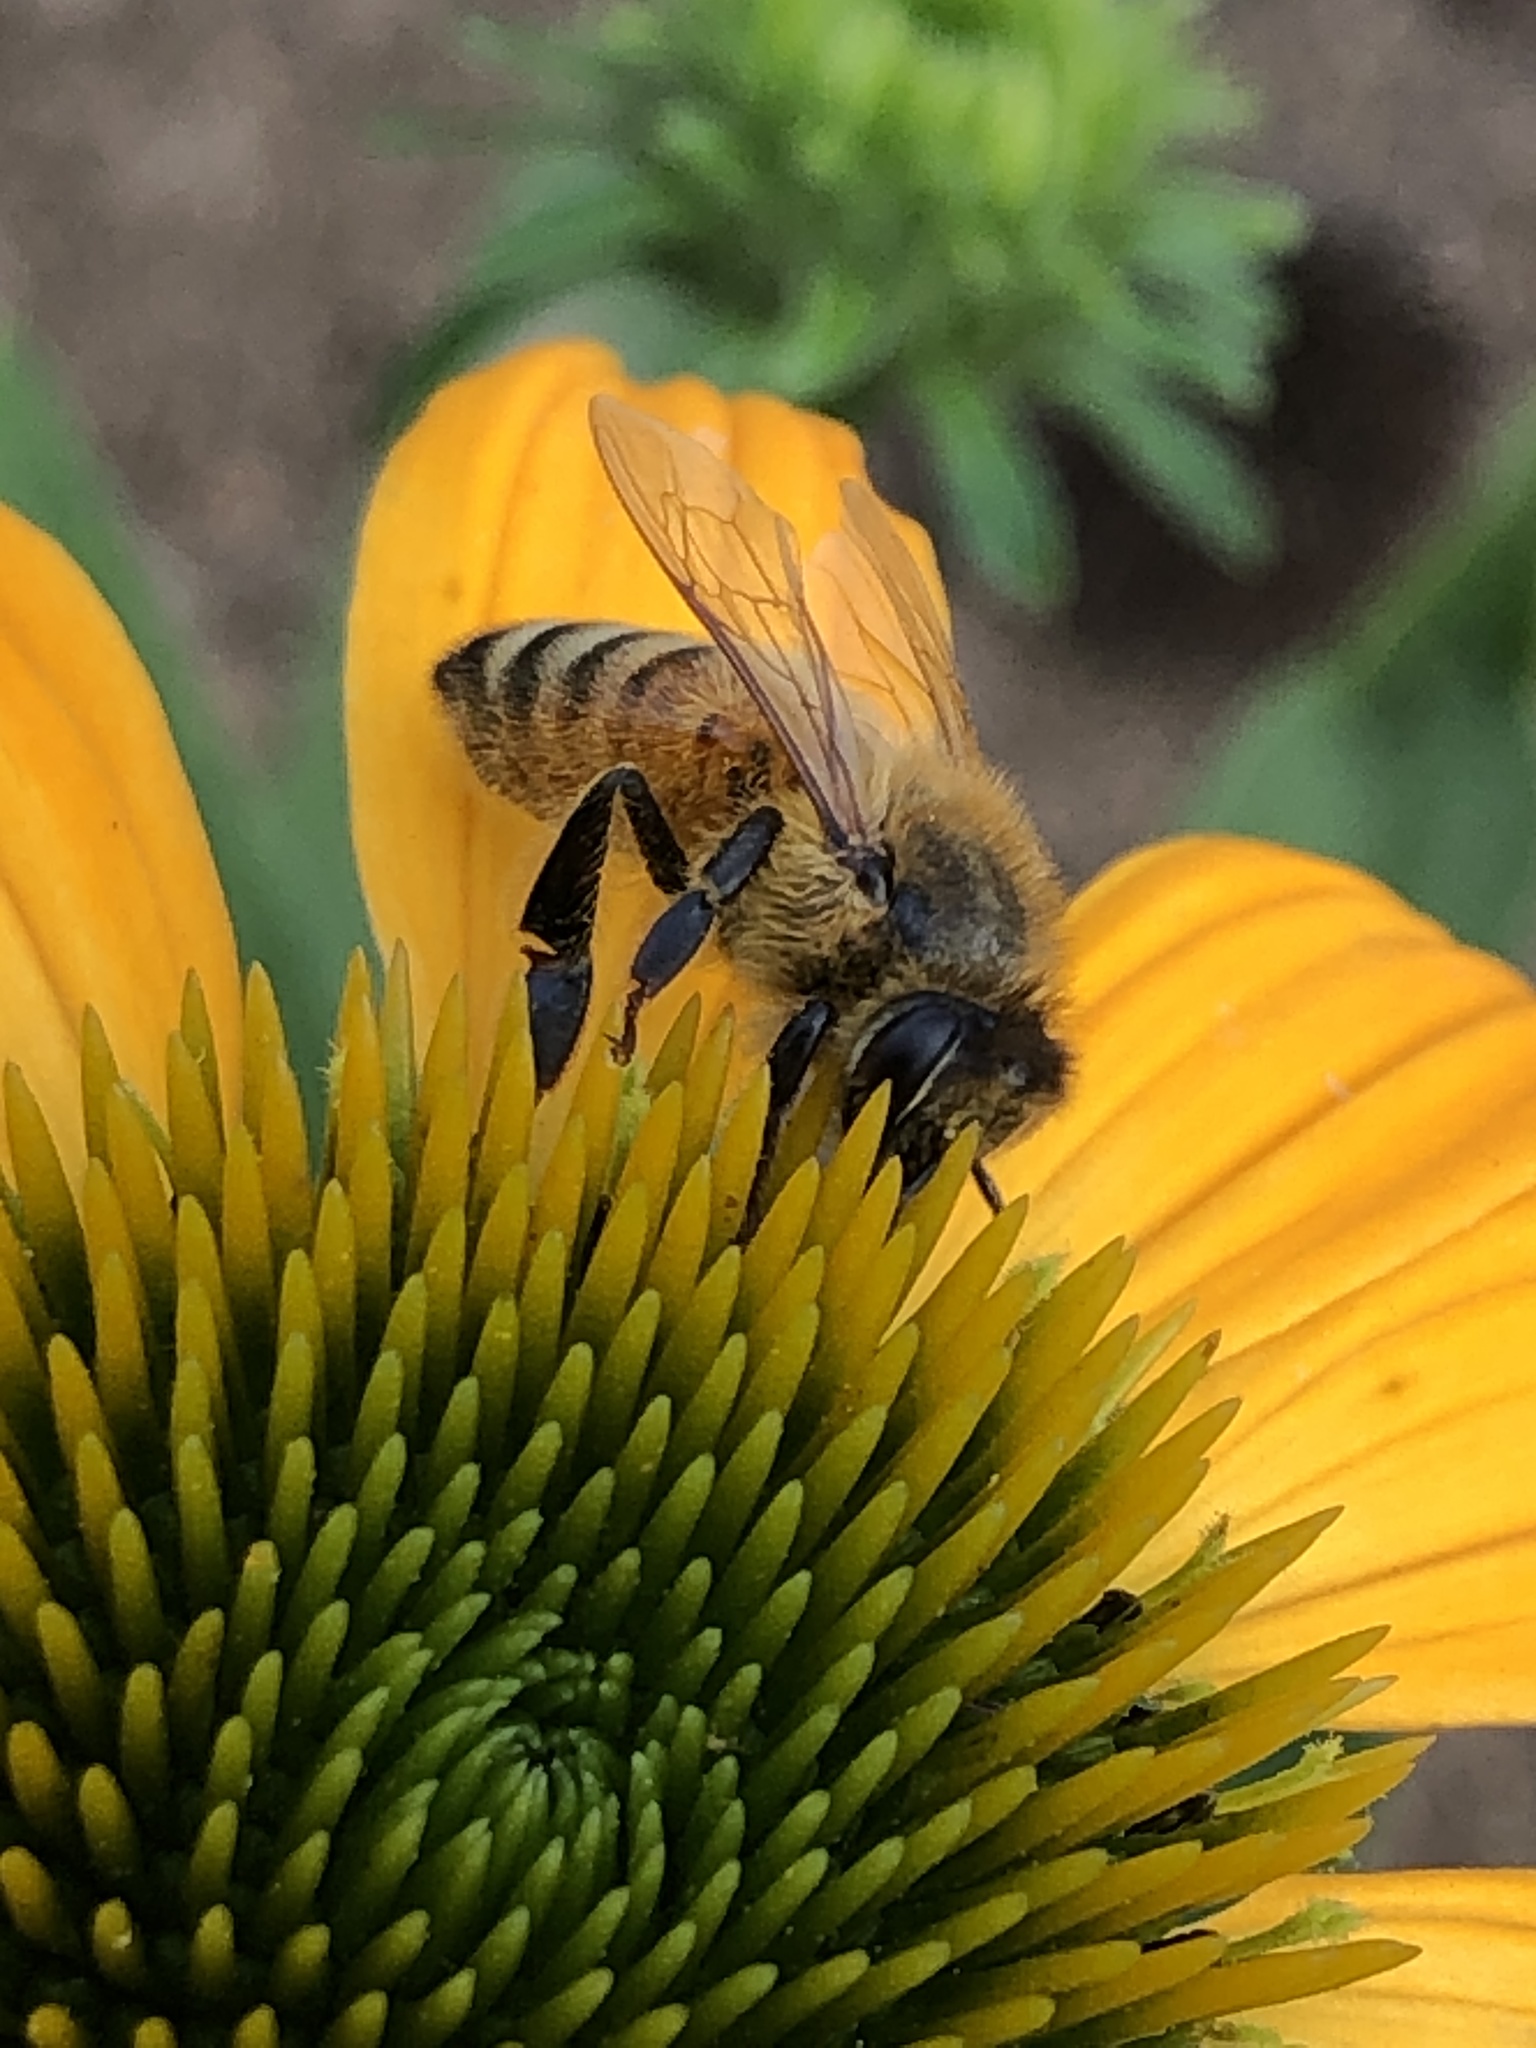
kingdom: Animalia
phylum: Arthropoda
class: Insecta
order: Hymenoptera
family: Apidae
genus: Apis
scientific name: Apis mellifera
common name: Honey bee
